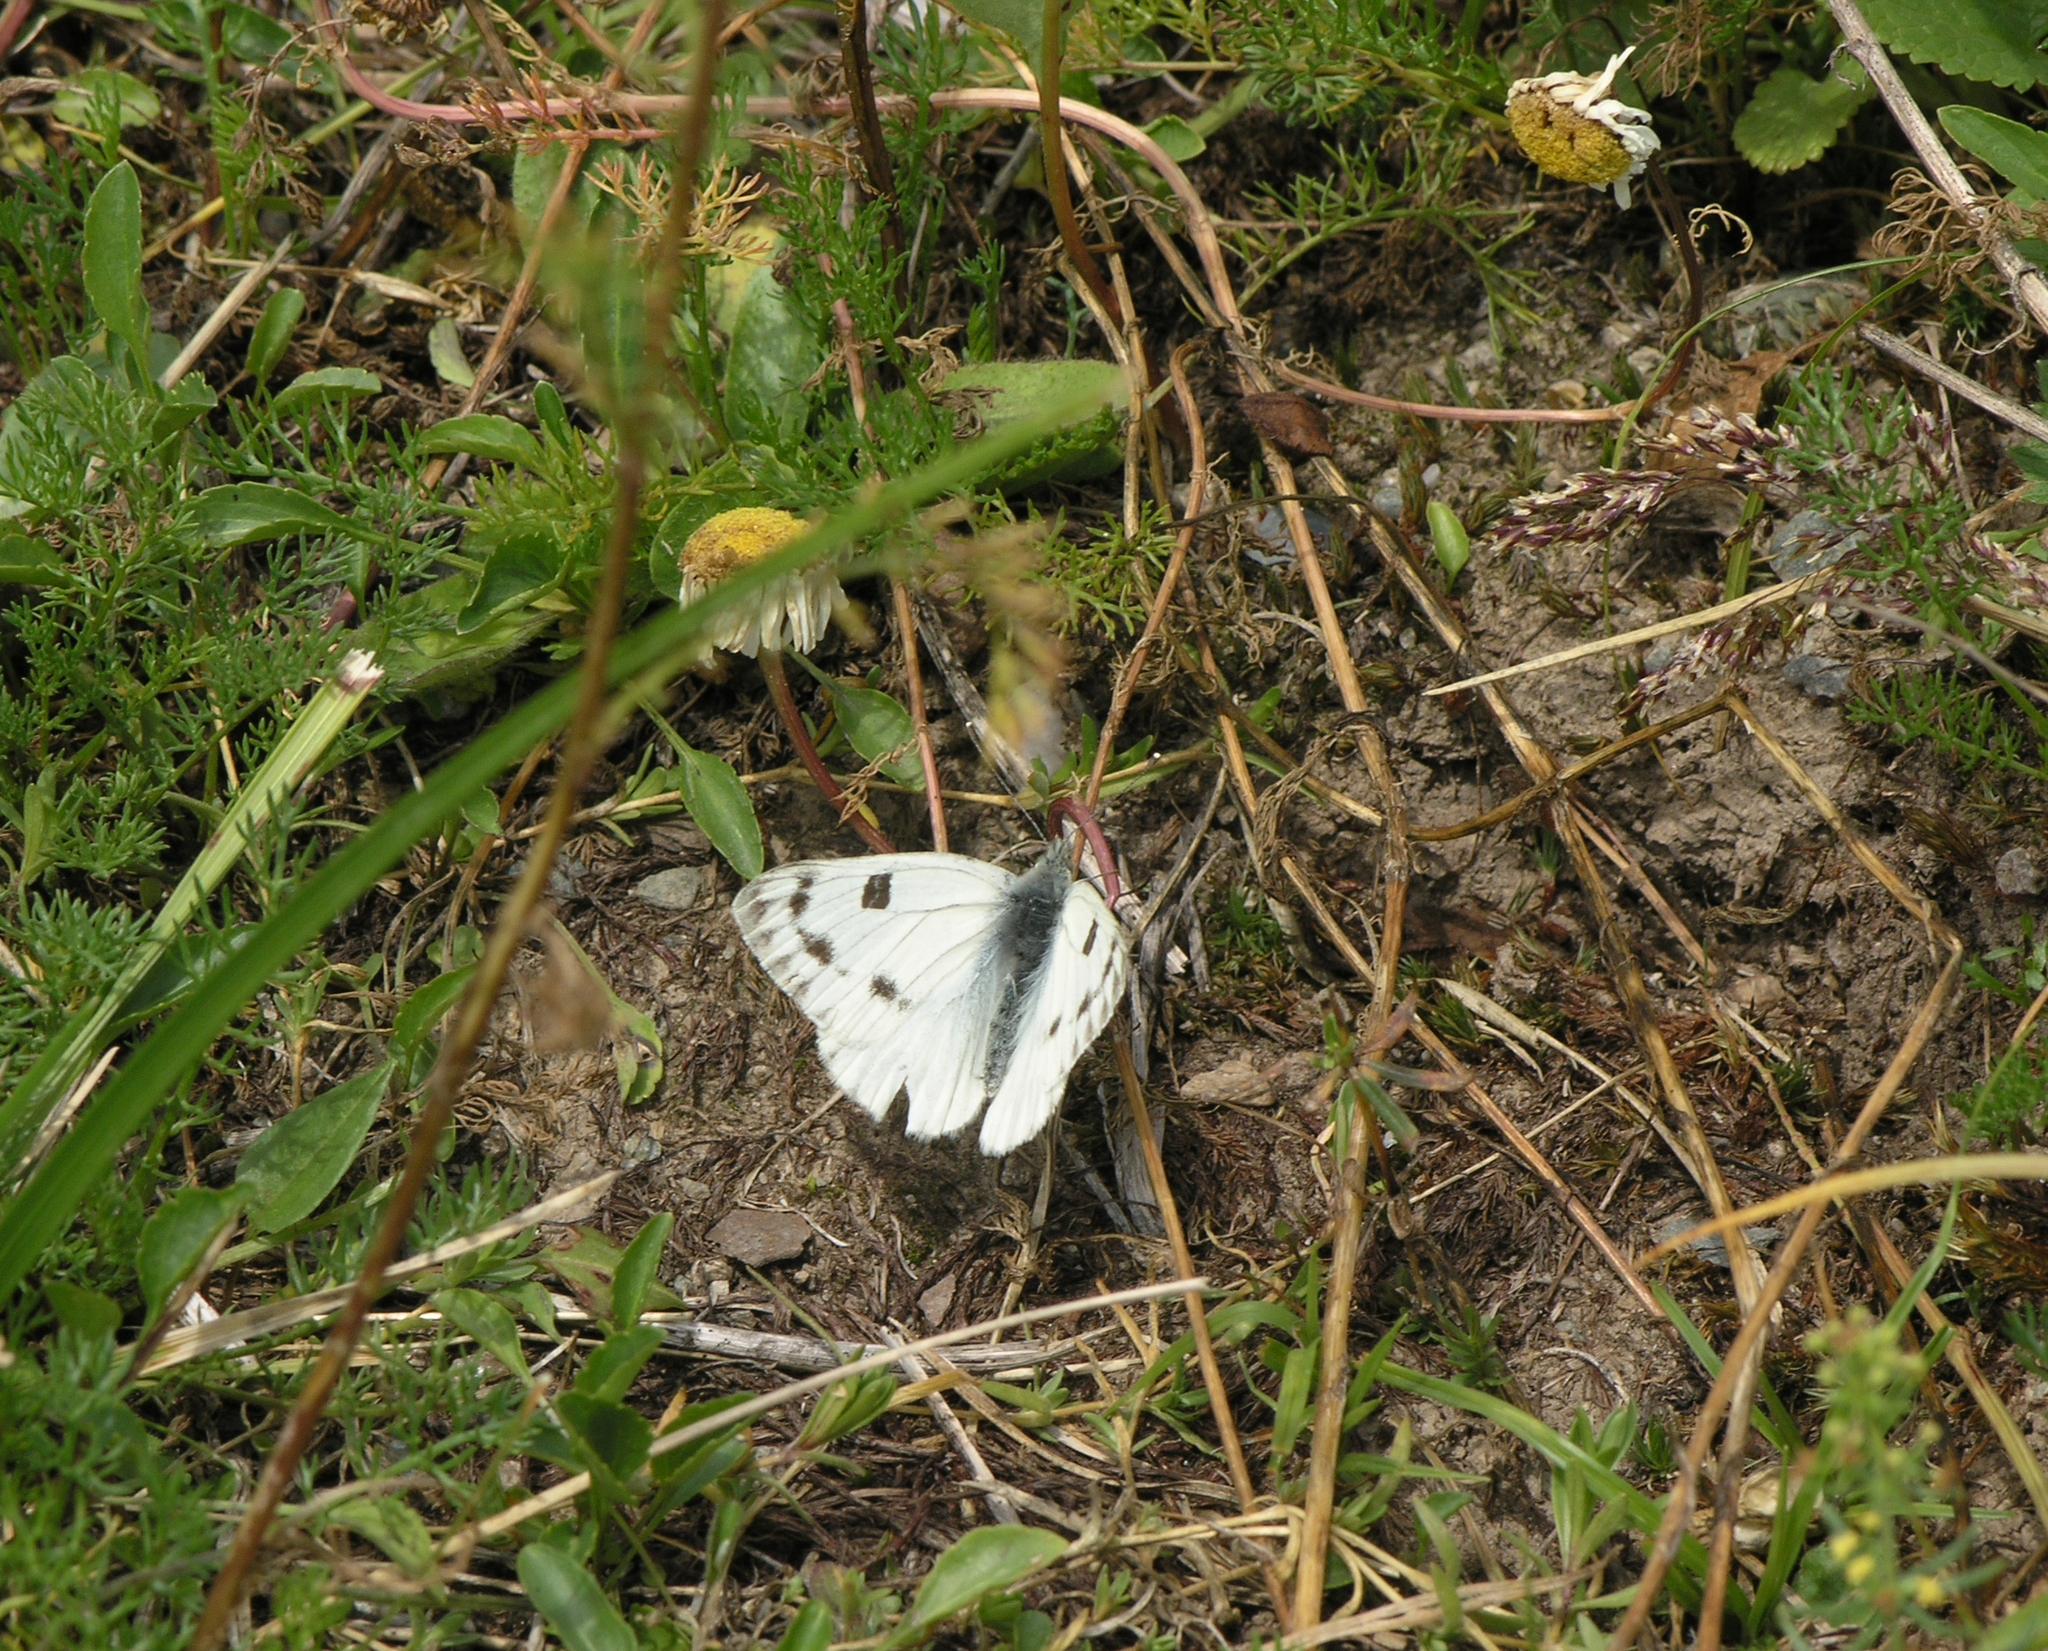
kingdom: Animalia
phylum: Arthropoda
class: Insecta
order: Lepidoptera
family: Pieridae
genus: Pontia
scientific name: Pontia callidice
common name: Peak white
